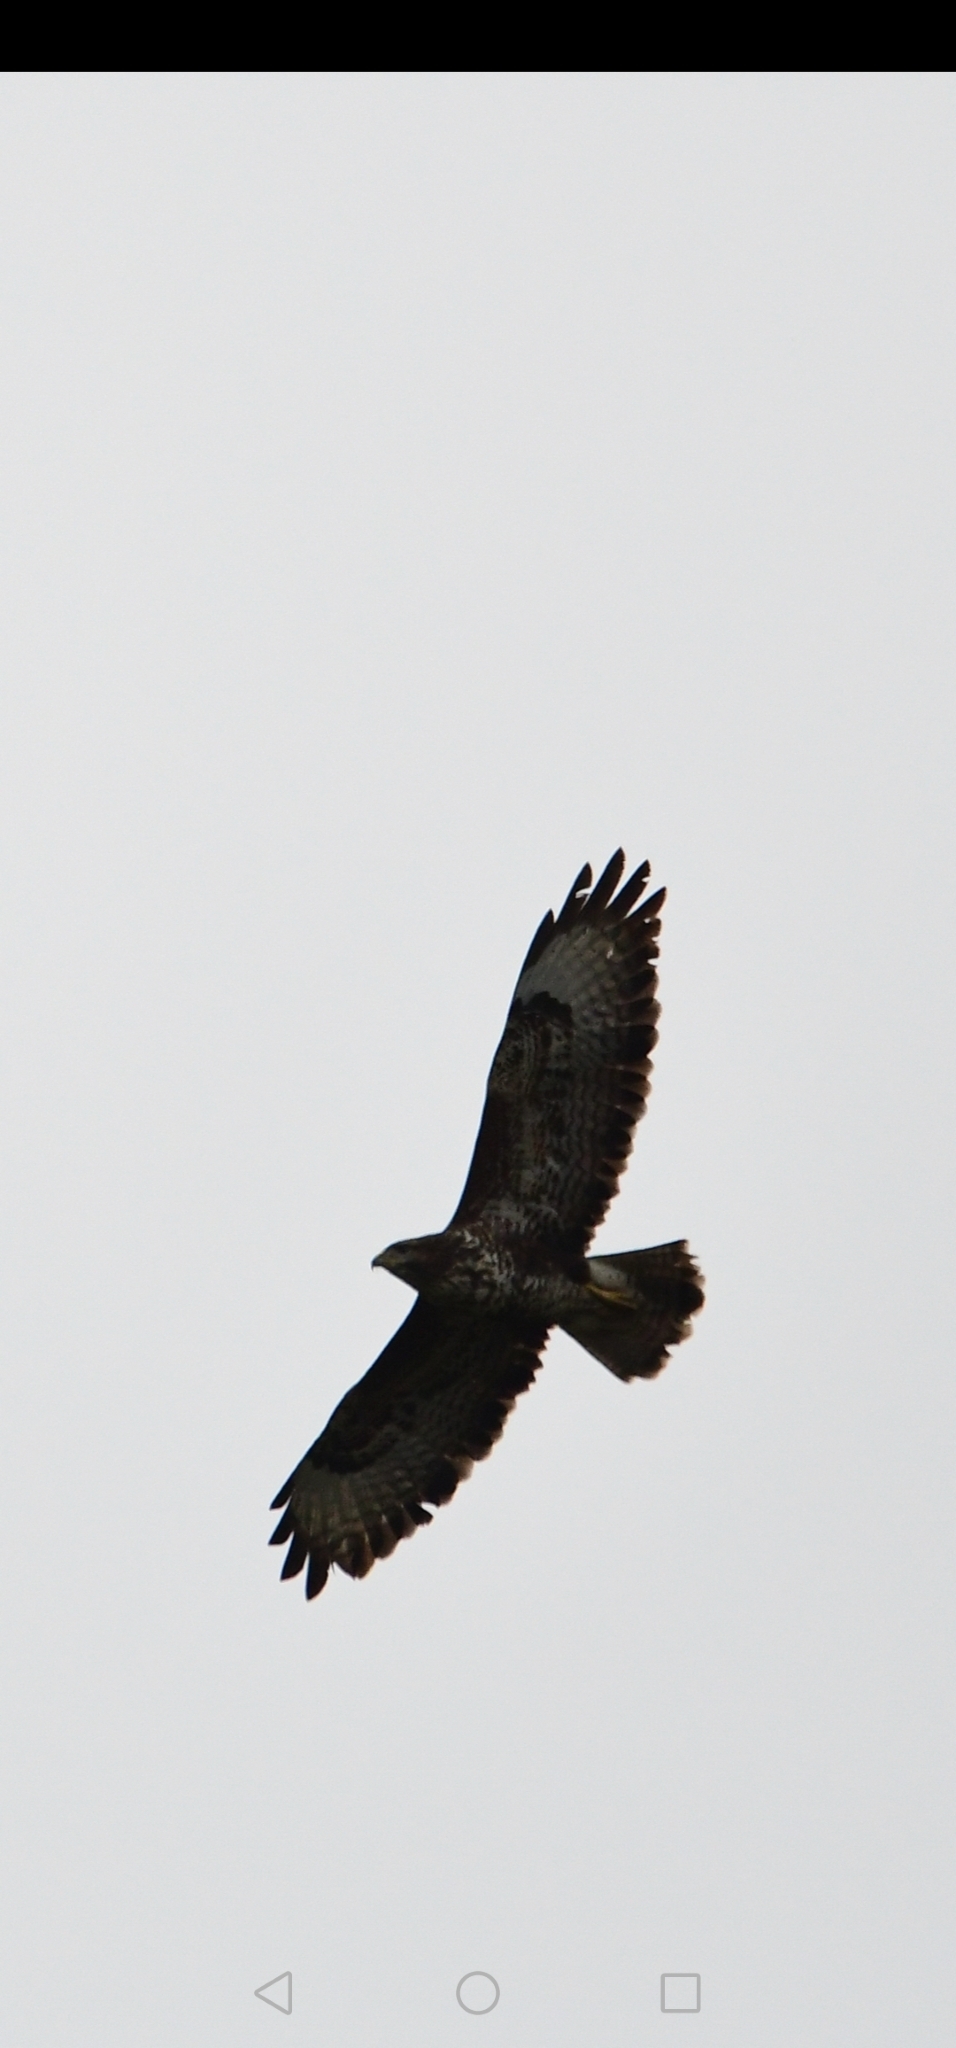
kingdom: Animalia
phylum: Chordata
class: Aves
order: Accipitriformes
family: Accipitridae
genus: Buteo
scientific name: Buteo buteo
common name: Common buzzard
